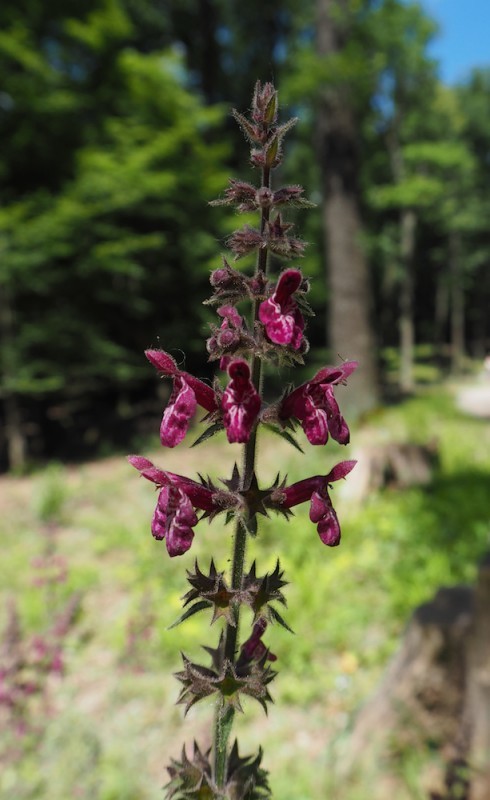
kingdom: Plantae
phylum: Tracheophyta
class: Magnoliopsida
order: Lamiales
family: Lamiaceae
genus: Stachys
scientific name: Stachys sylvatica
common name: Hedge woundwort
